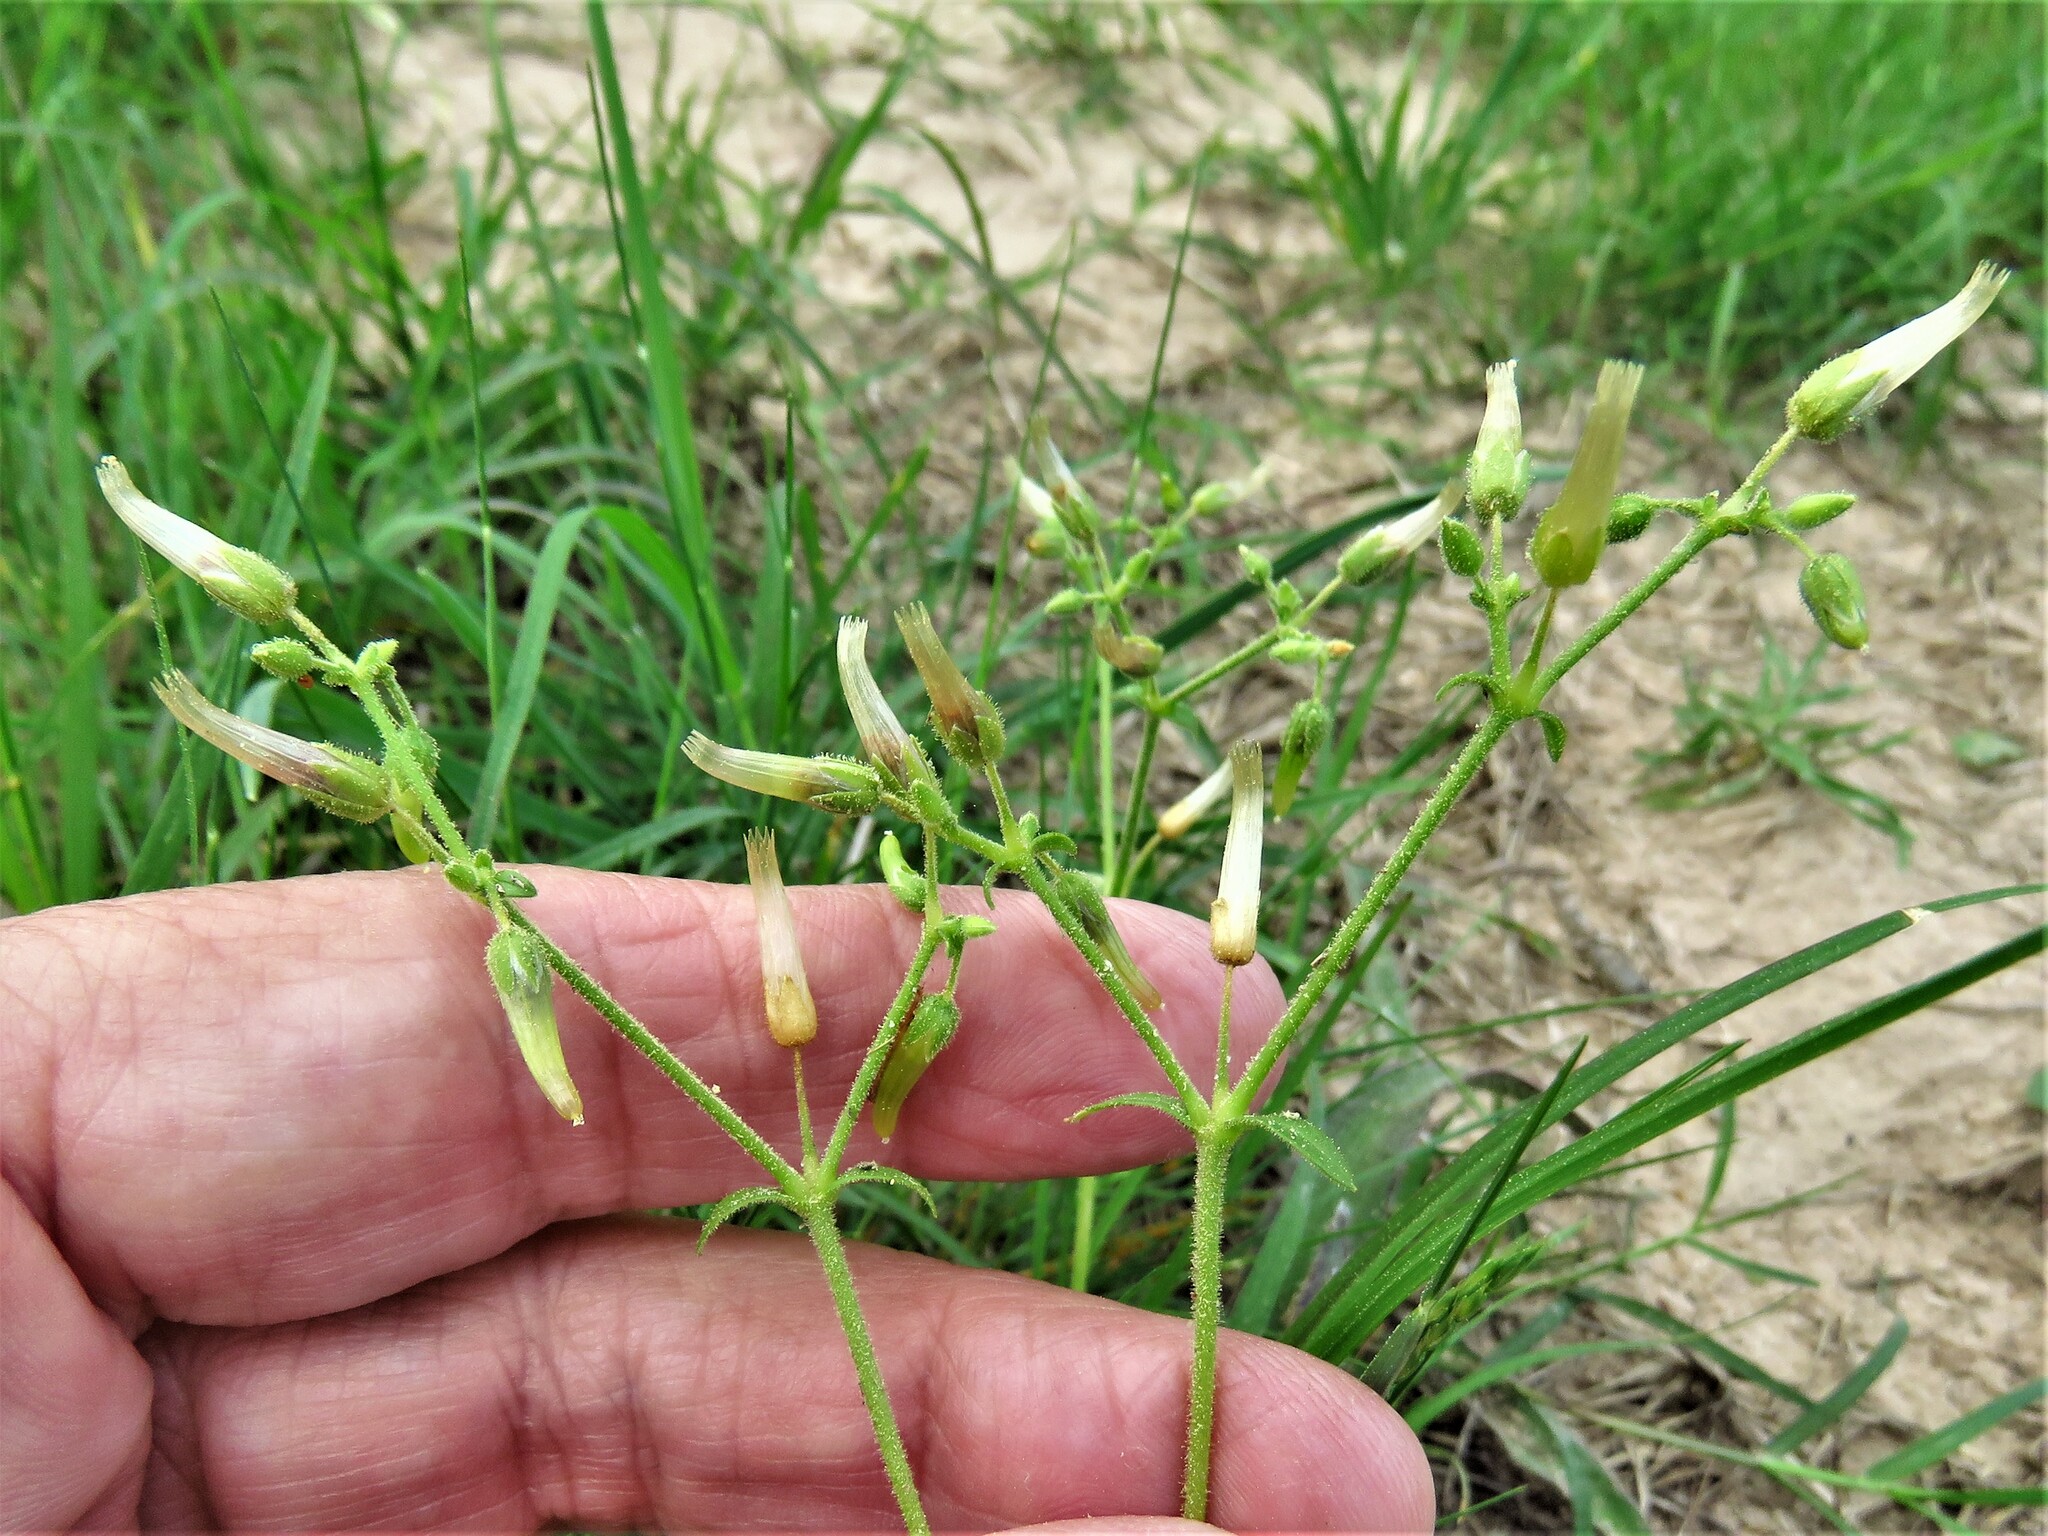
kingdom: Plantae
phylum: Tracheophyta
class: Magnoliopsida
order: Caryophyllales
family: Caryophyllaceae
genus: Cerastium
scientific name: Cerastium glomeratum
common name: Sticky chickweed
